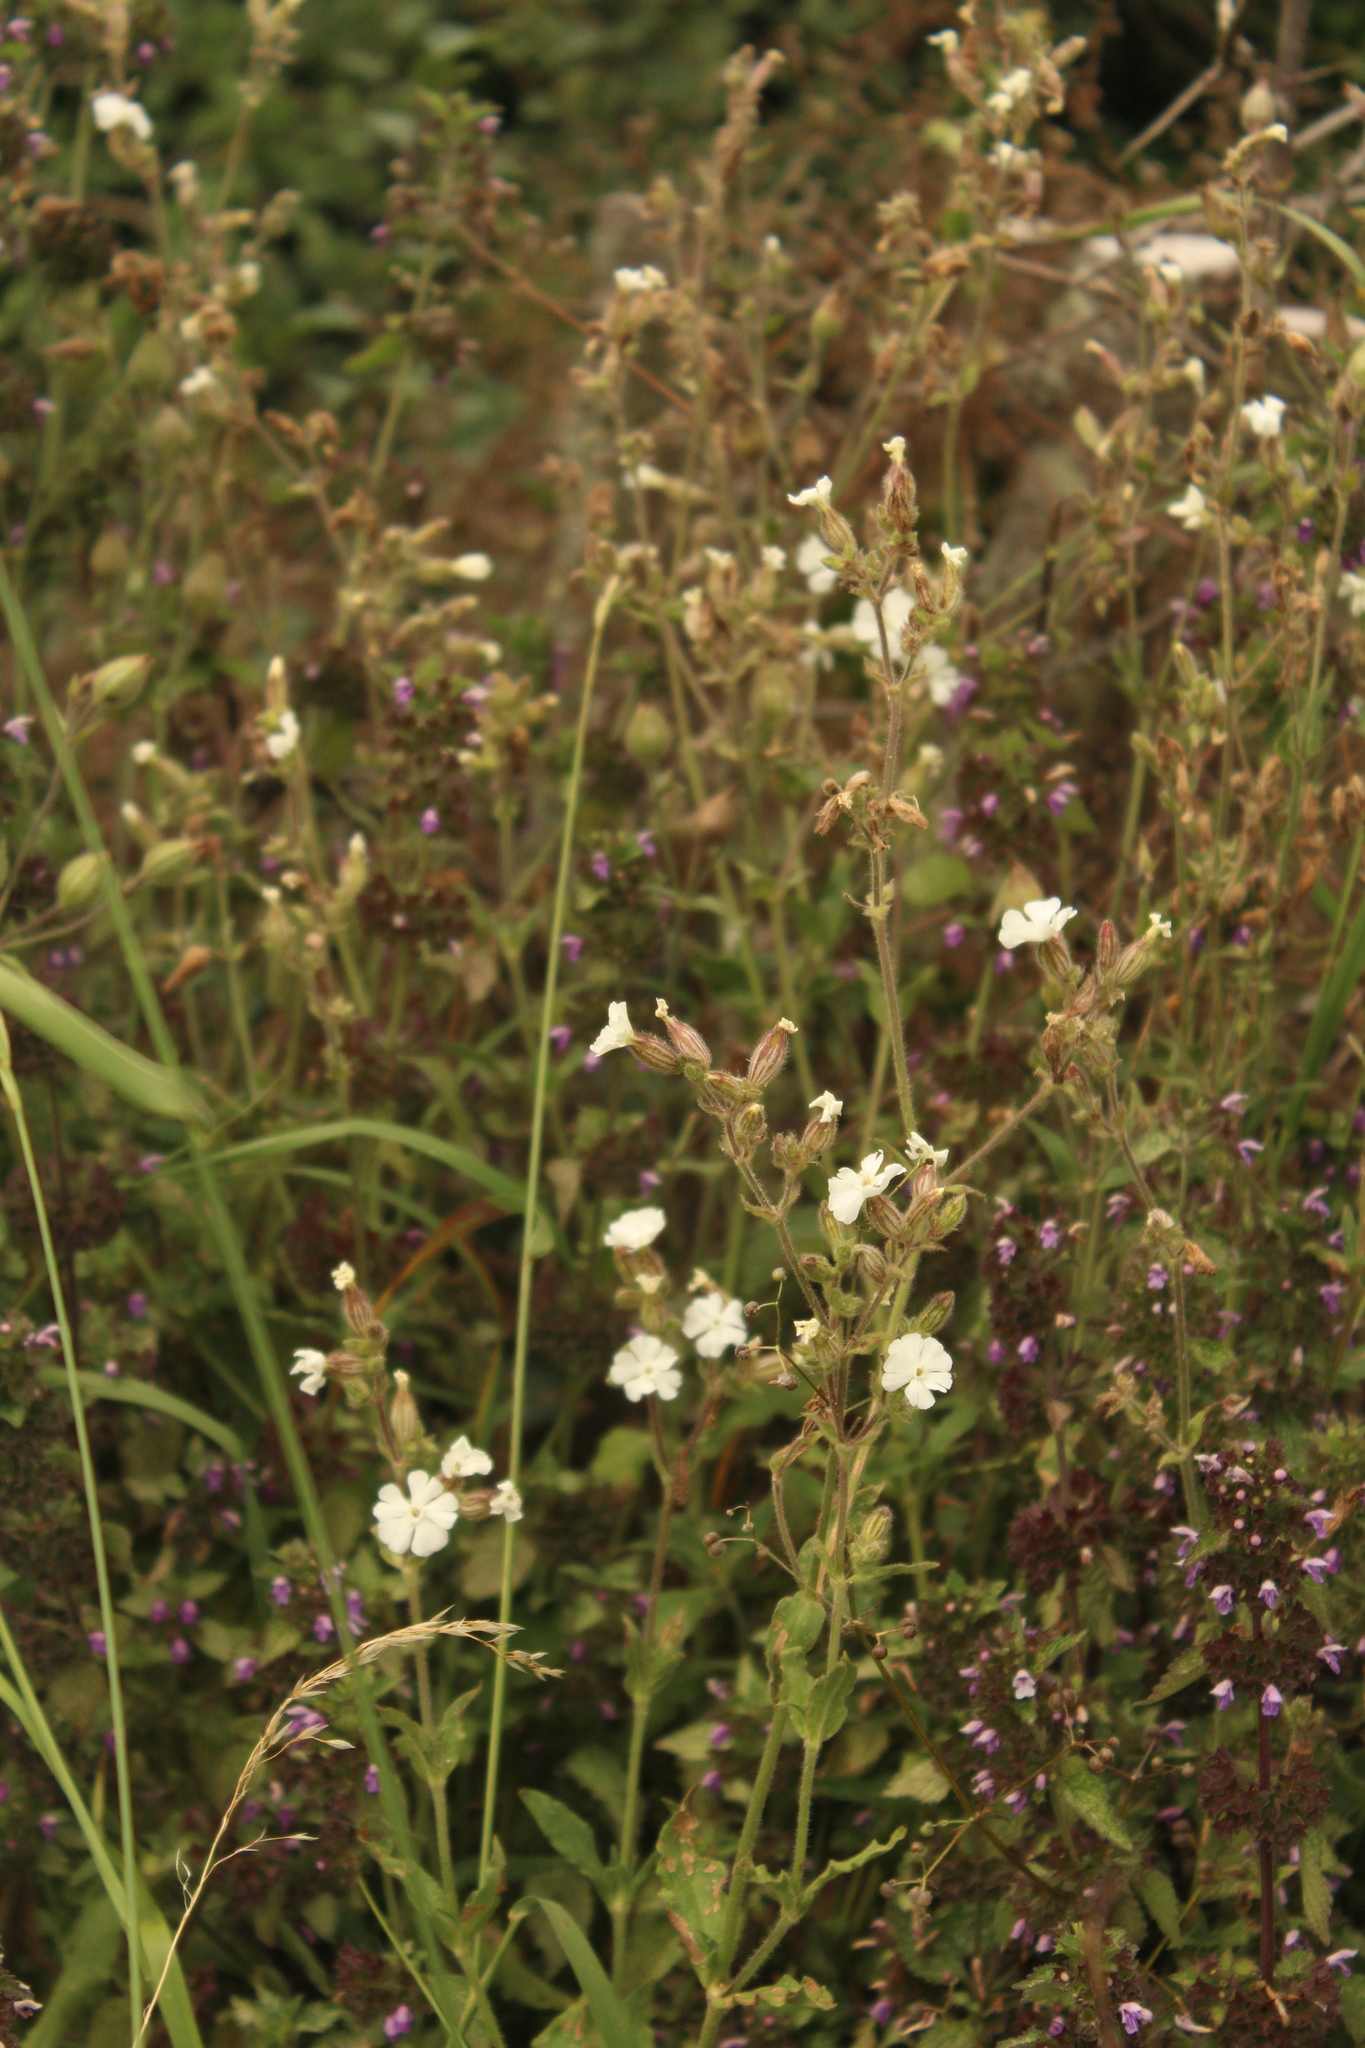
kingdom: Plantae
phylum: Tracheophyta
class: Magnoliopsida
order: Caryophyllales
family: Caryophyllaceae
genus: Silene
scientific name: Silene latifolia
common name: White campion
